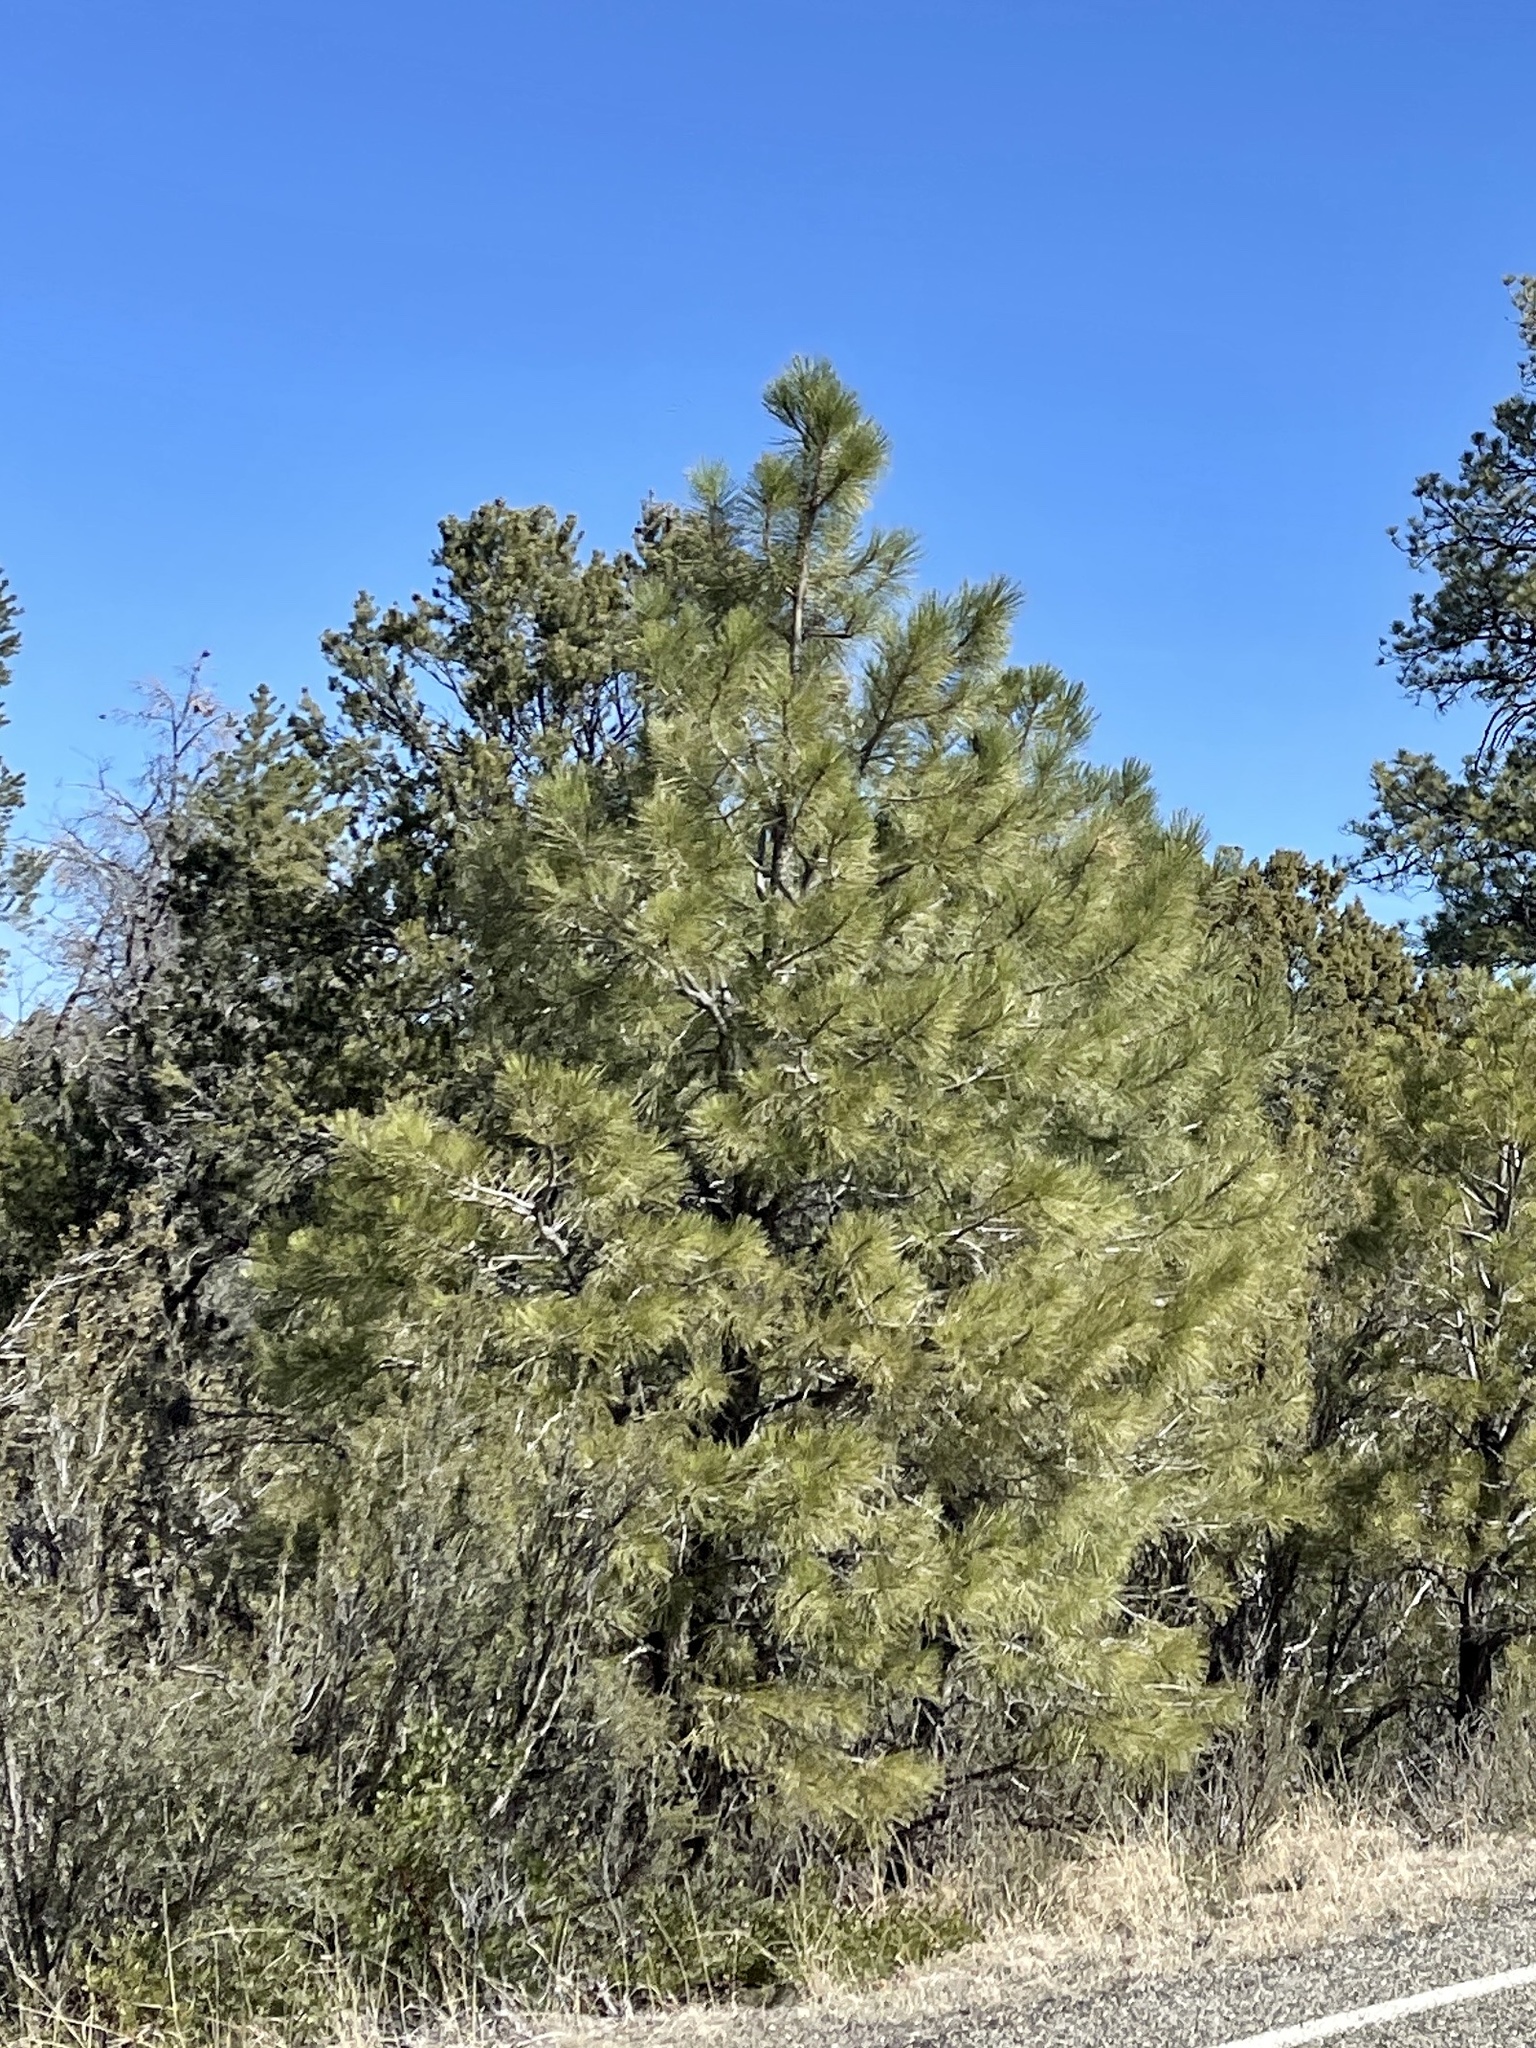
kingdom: Plantae
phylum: Tracheophyta
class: Pinopsida
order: Pinales
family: Pinaceae
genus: Pinus
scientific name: Pinus ponderosa
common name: Western yellow-pine
